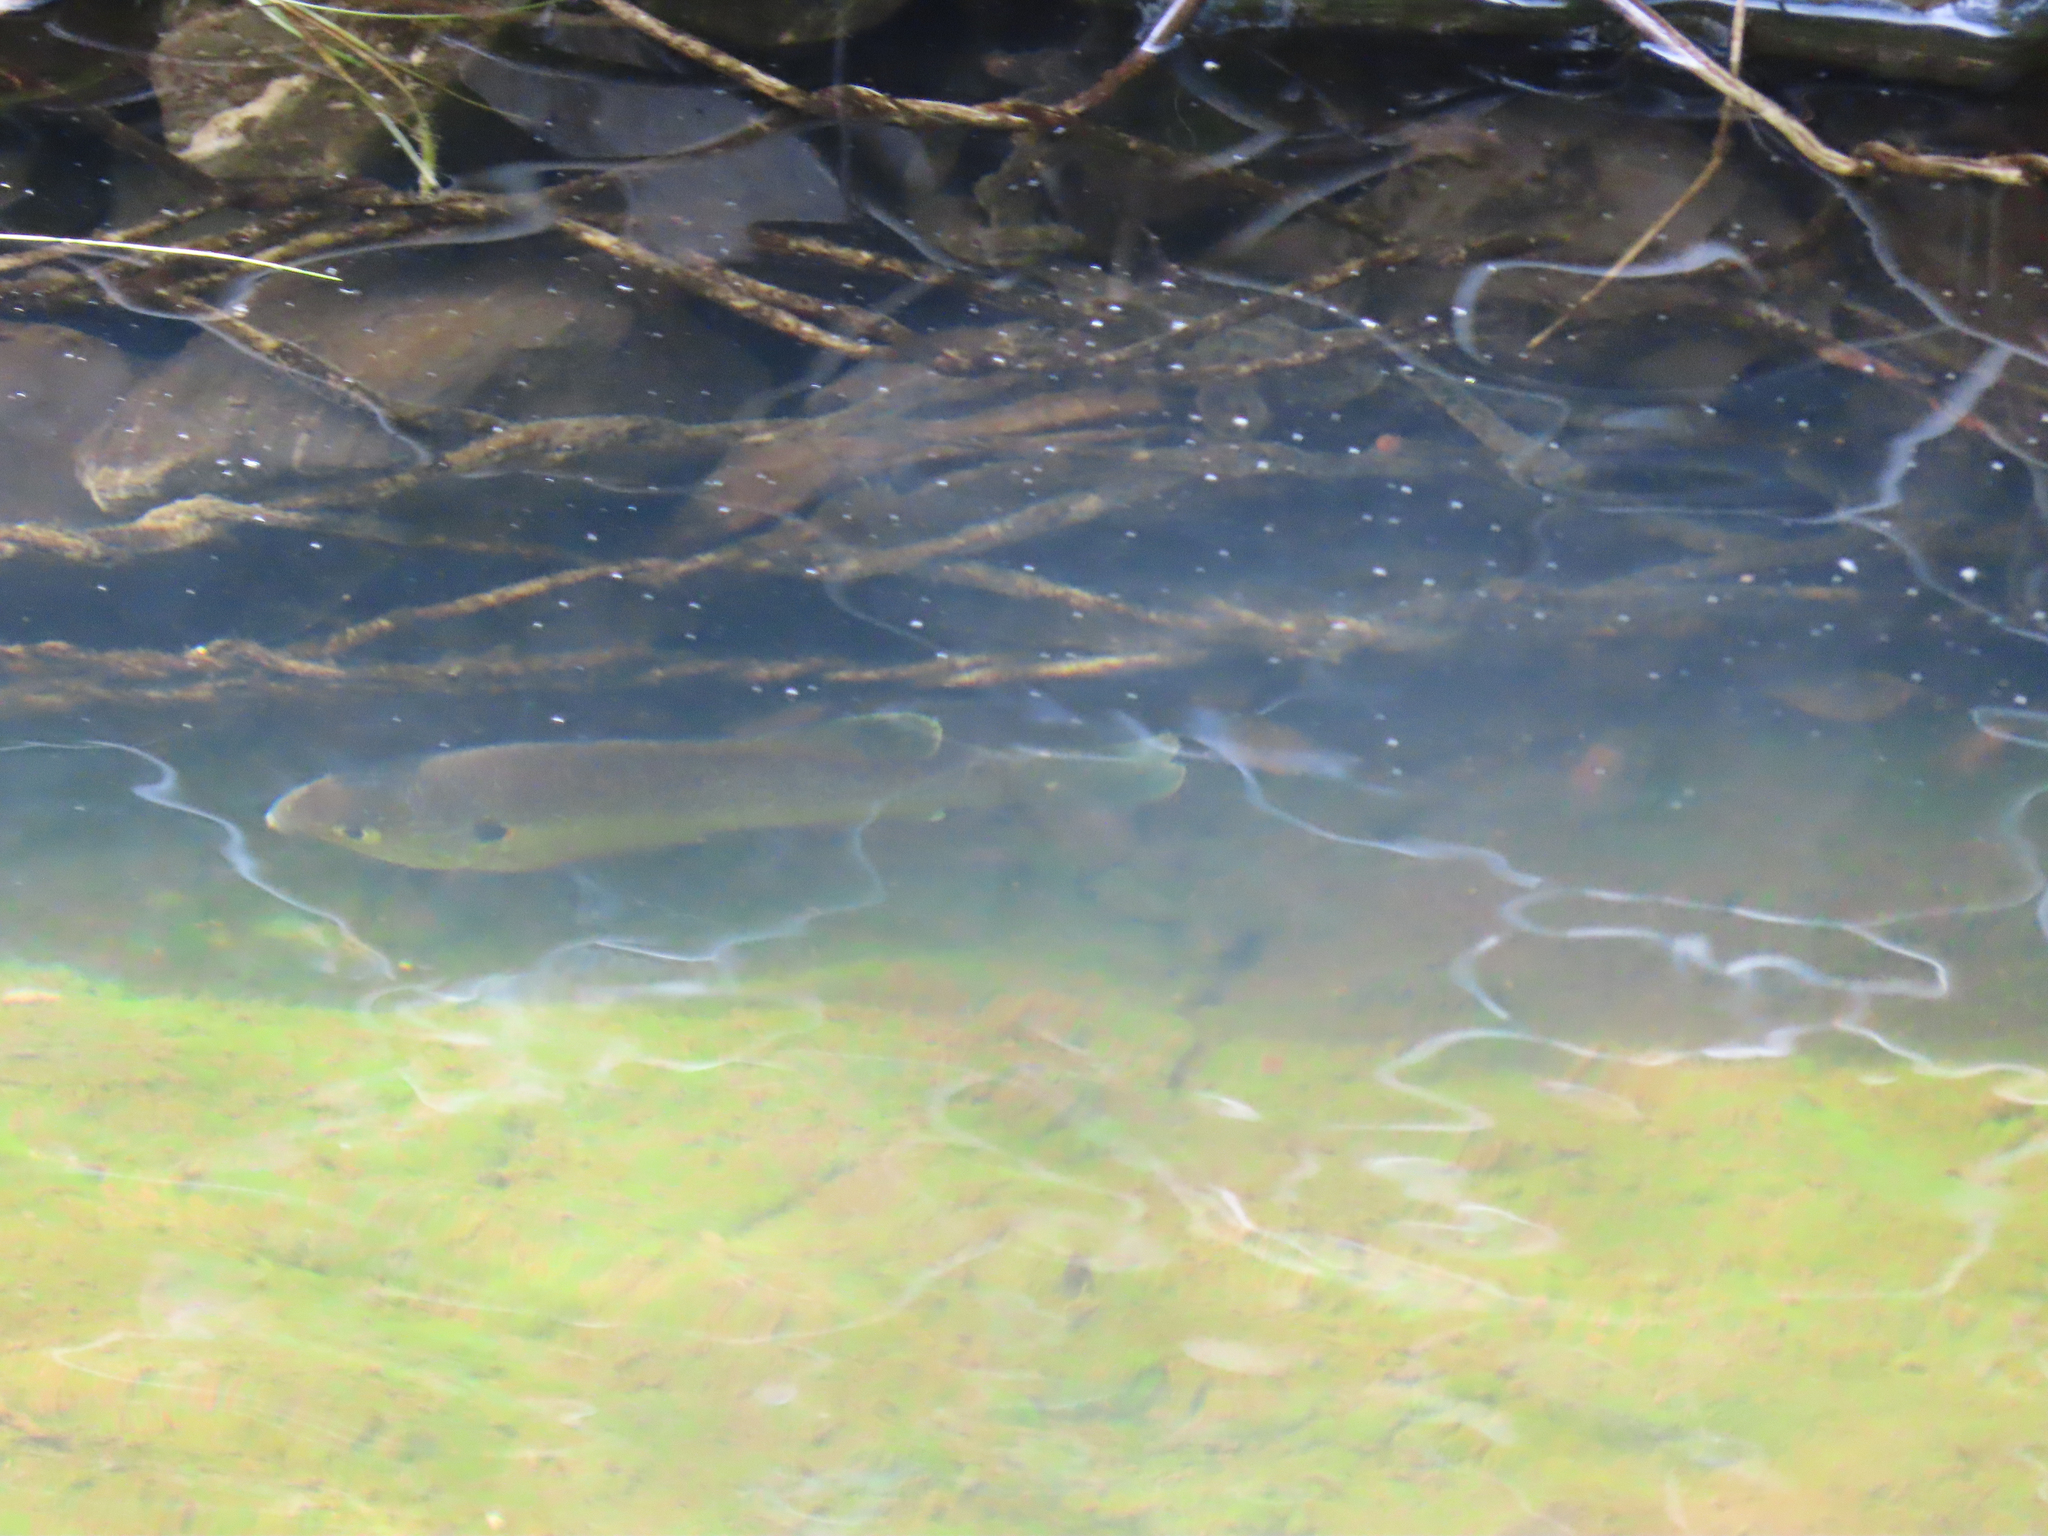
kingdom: Animalia
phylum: Chordata
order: Perciformes
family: Centrarchidae
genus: Lepomis
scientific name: Lepomis gibbosus
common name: Pumpkinseed
